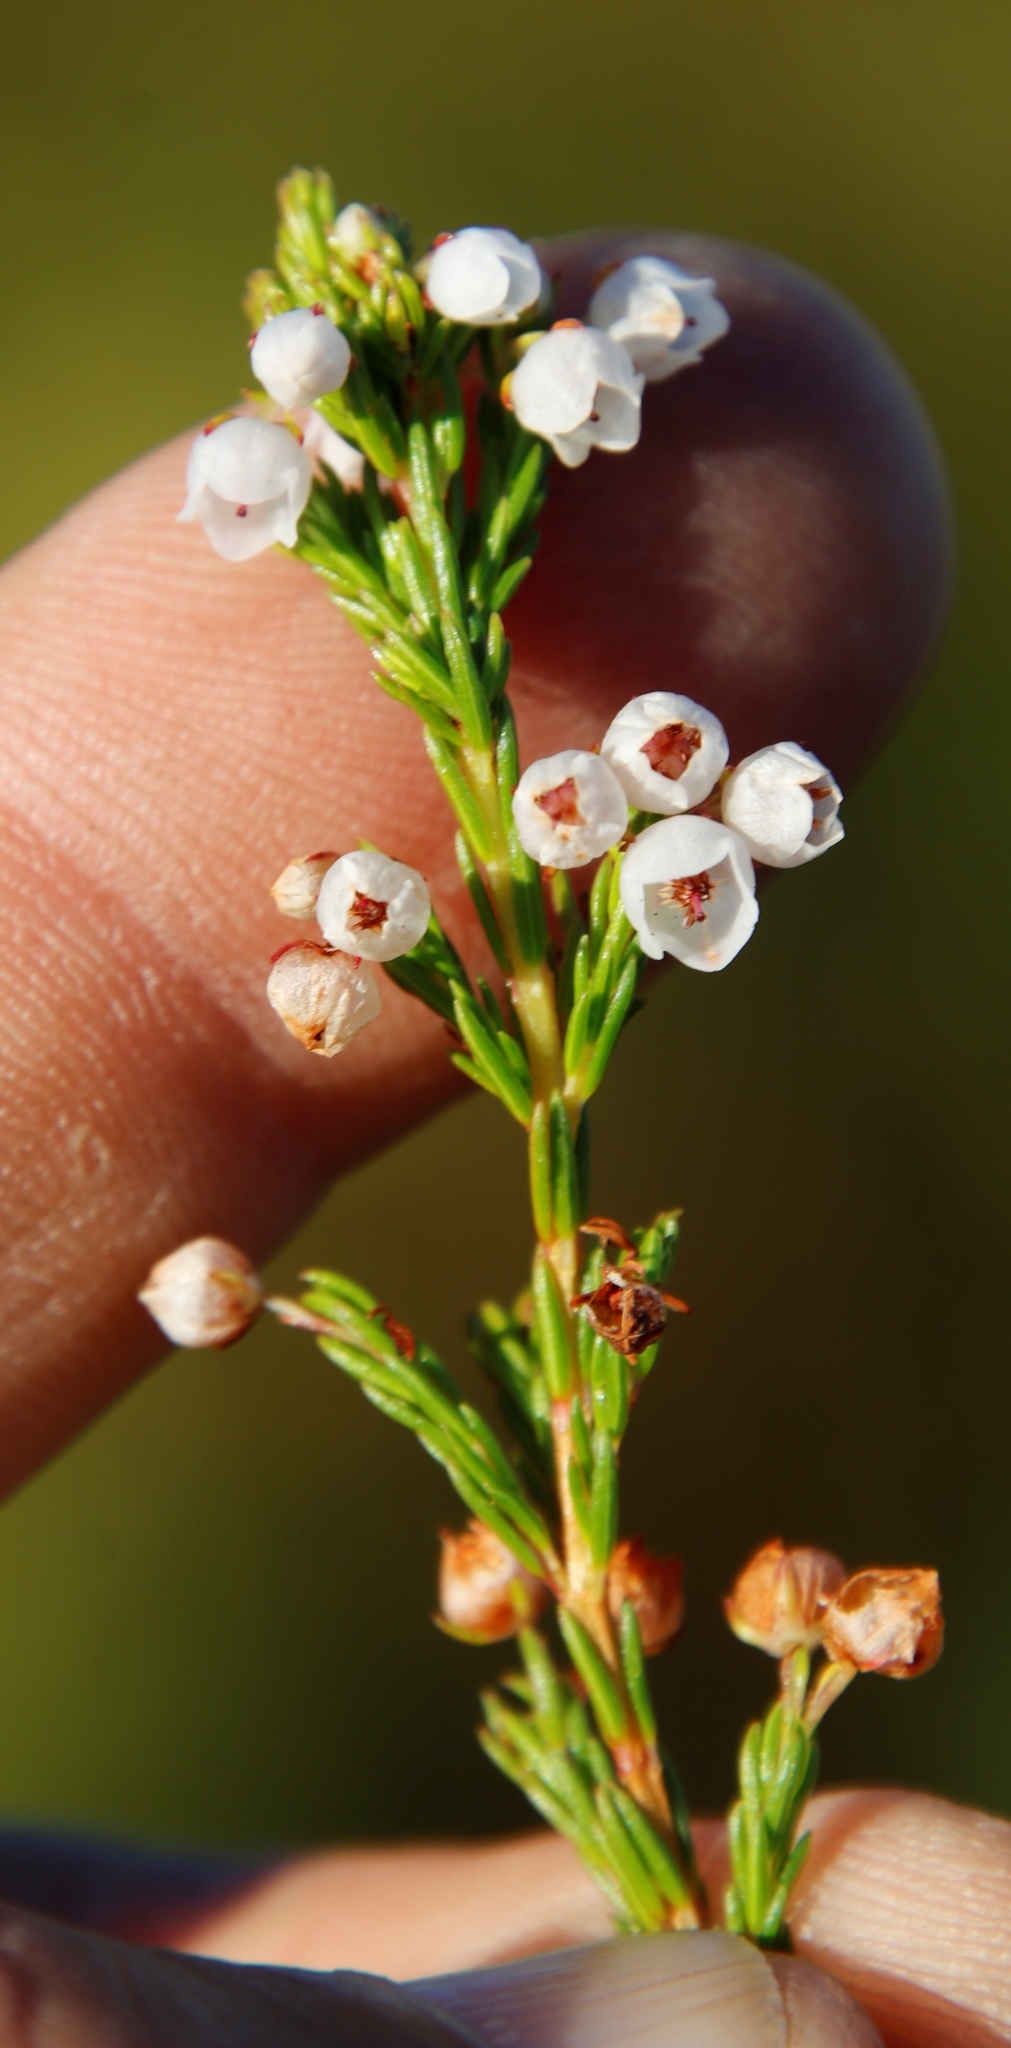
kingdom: Plantae
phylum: Tracheophyta
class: Magnoliopsida
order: Ericales
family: Ericaceae
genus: Erica
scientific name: Erica capensis
